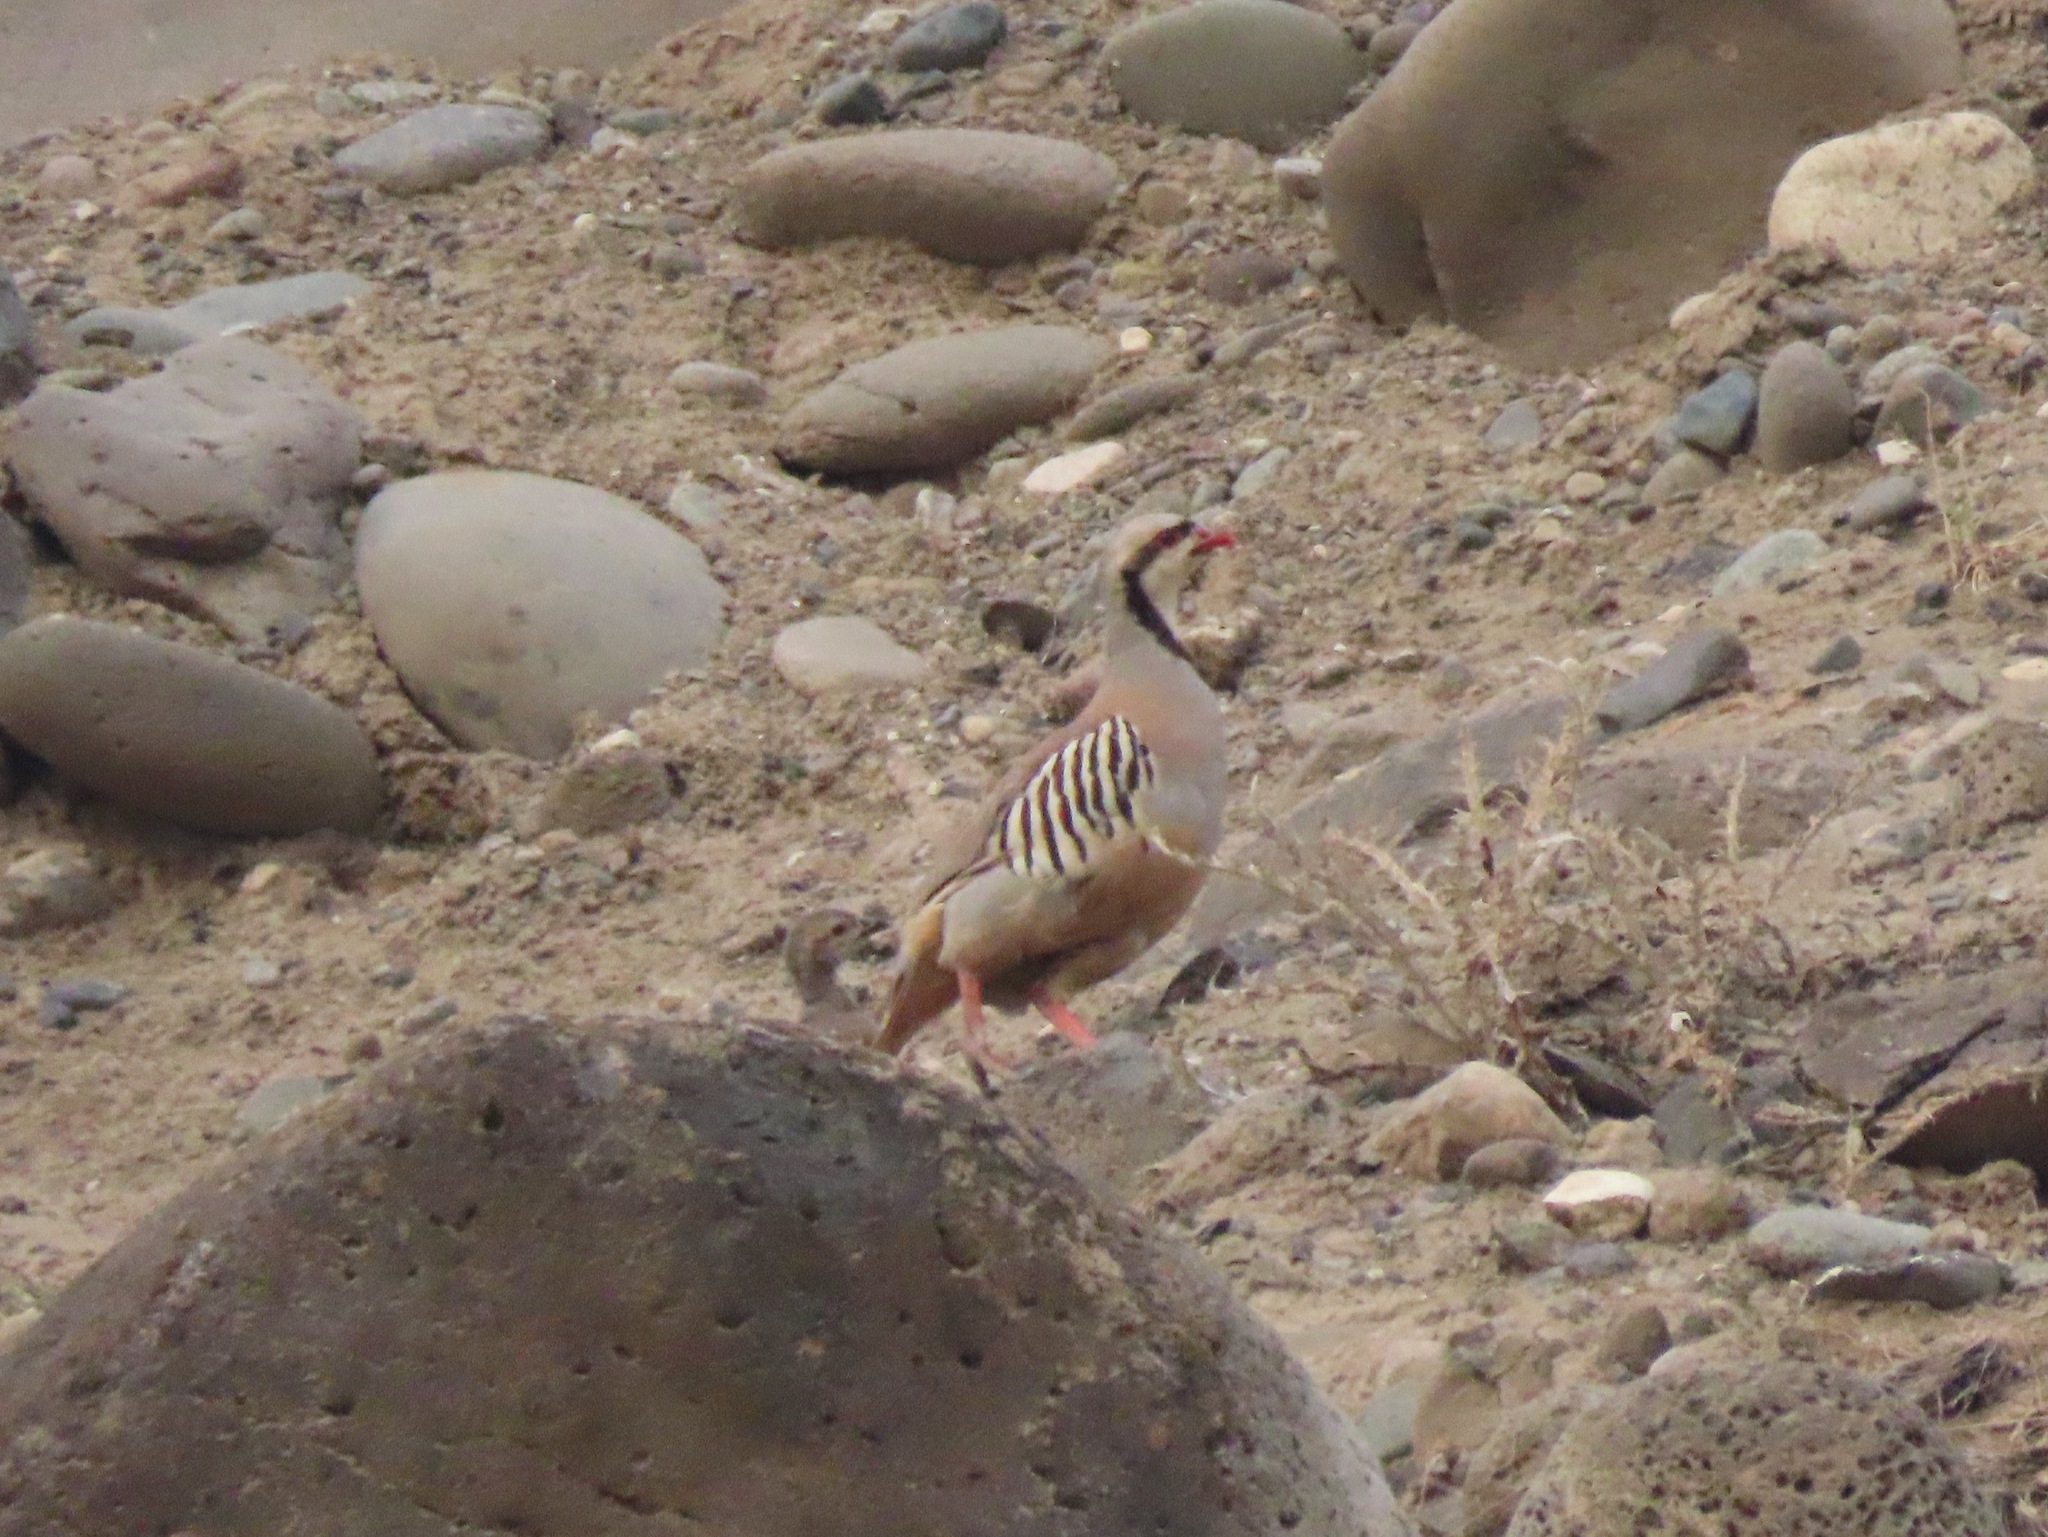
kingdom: Animalia
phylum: Chordata
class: Aves
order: Galliformes
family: Phasianidae
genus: Alectoris
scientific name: Alectoris chukar
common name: Chukar
